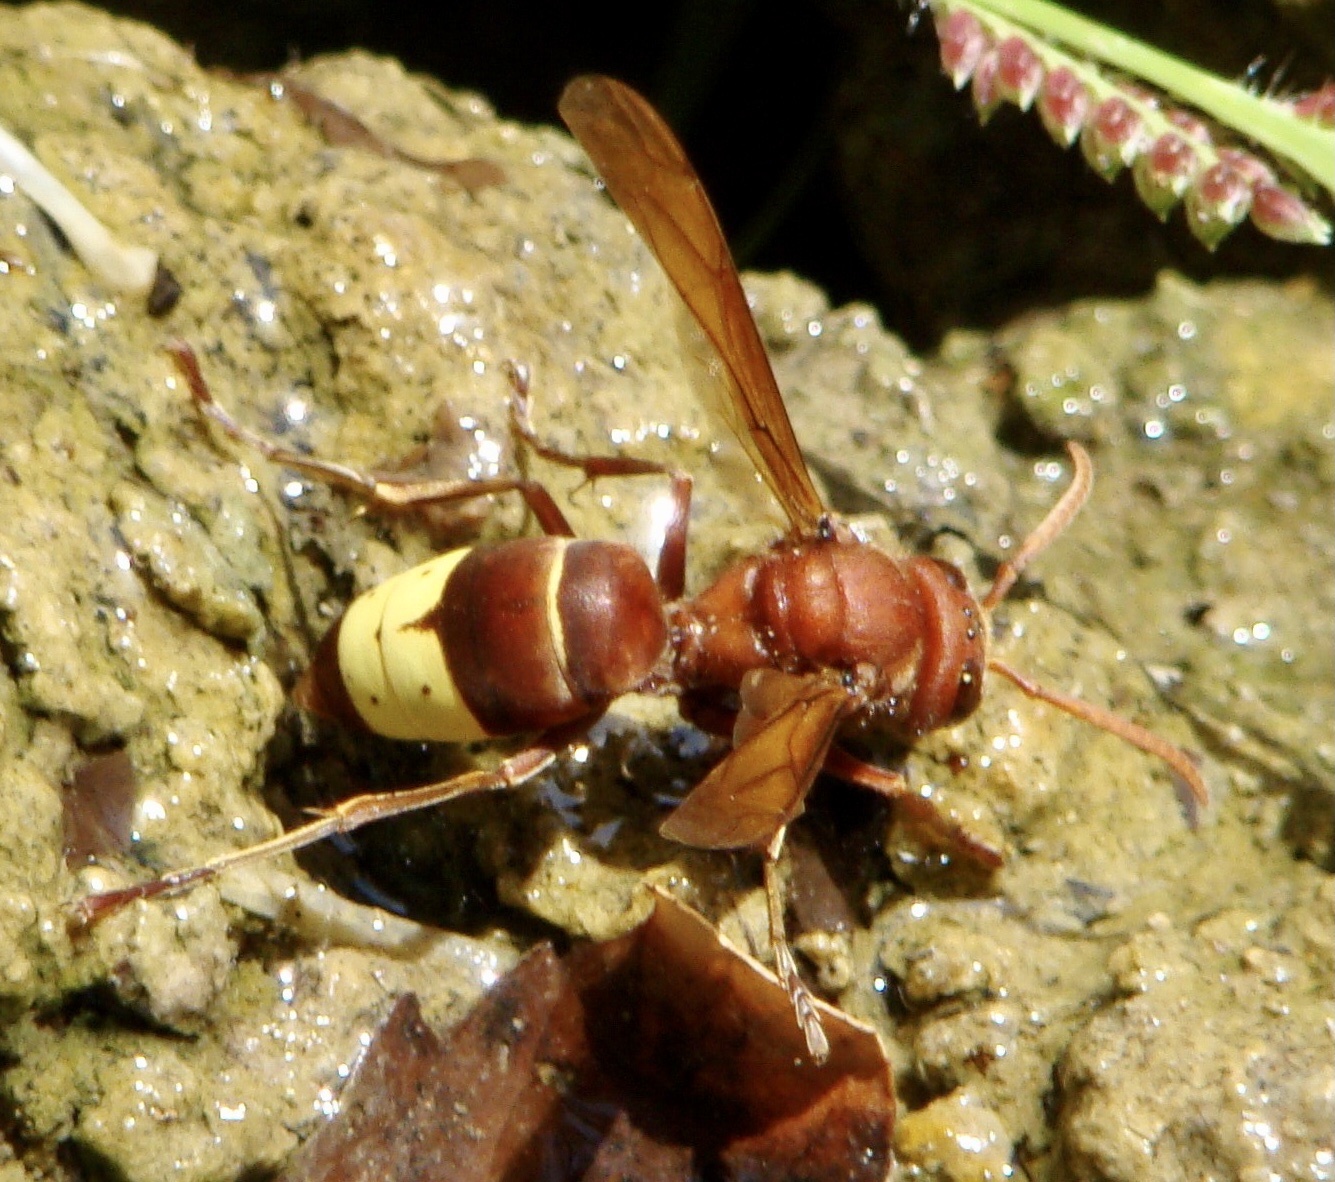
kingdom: Animalia
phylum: Arthropoda
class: Insecta
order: Hymenoptera
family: Vespidae
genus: Vespa
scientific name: Vespa orientalis
